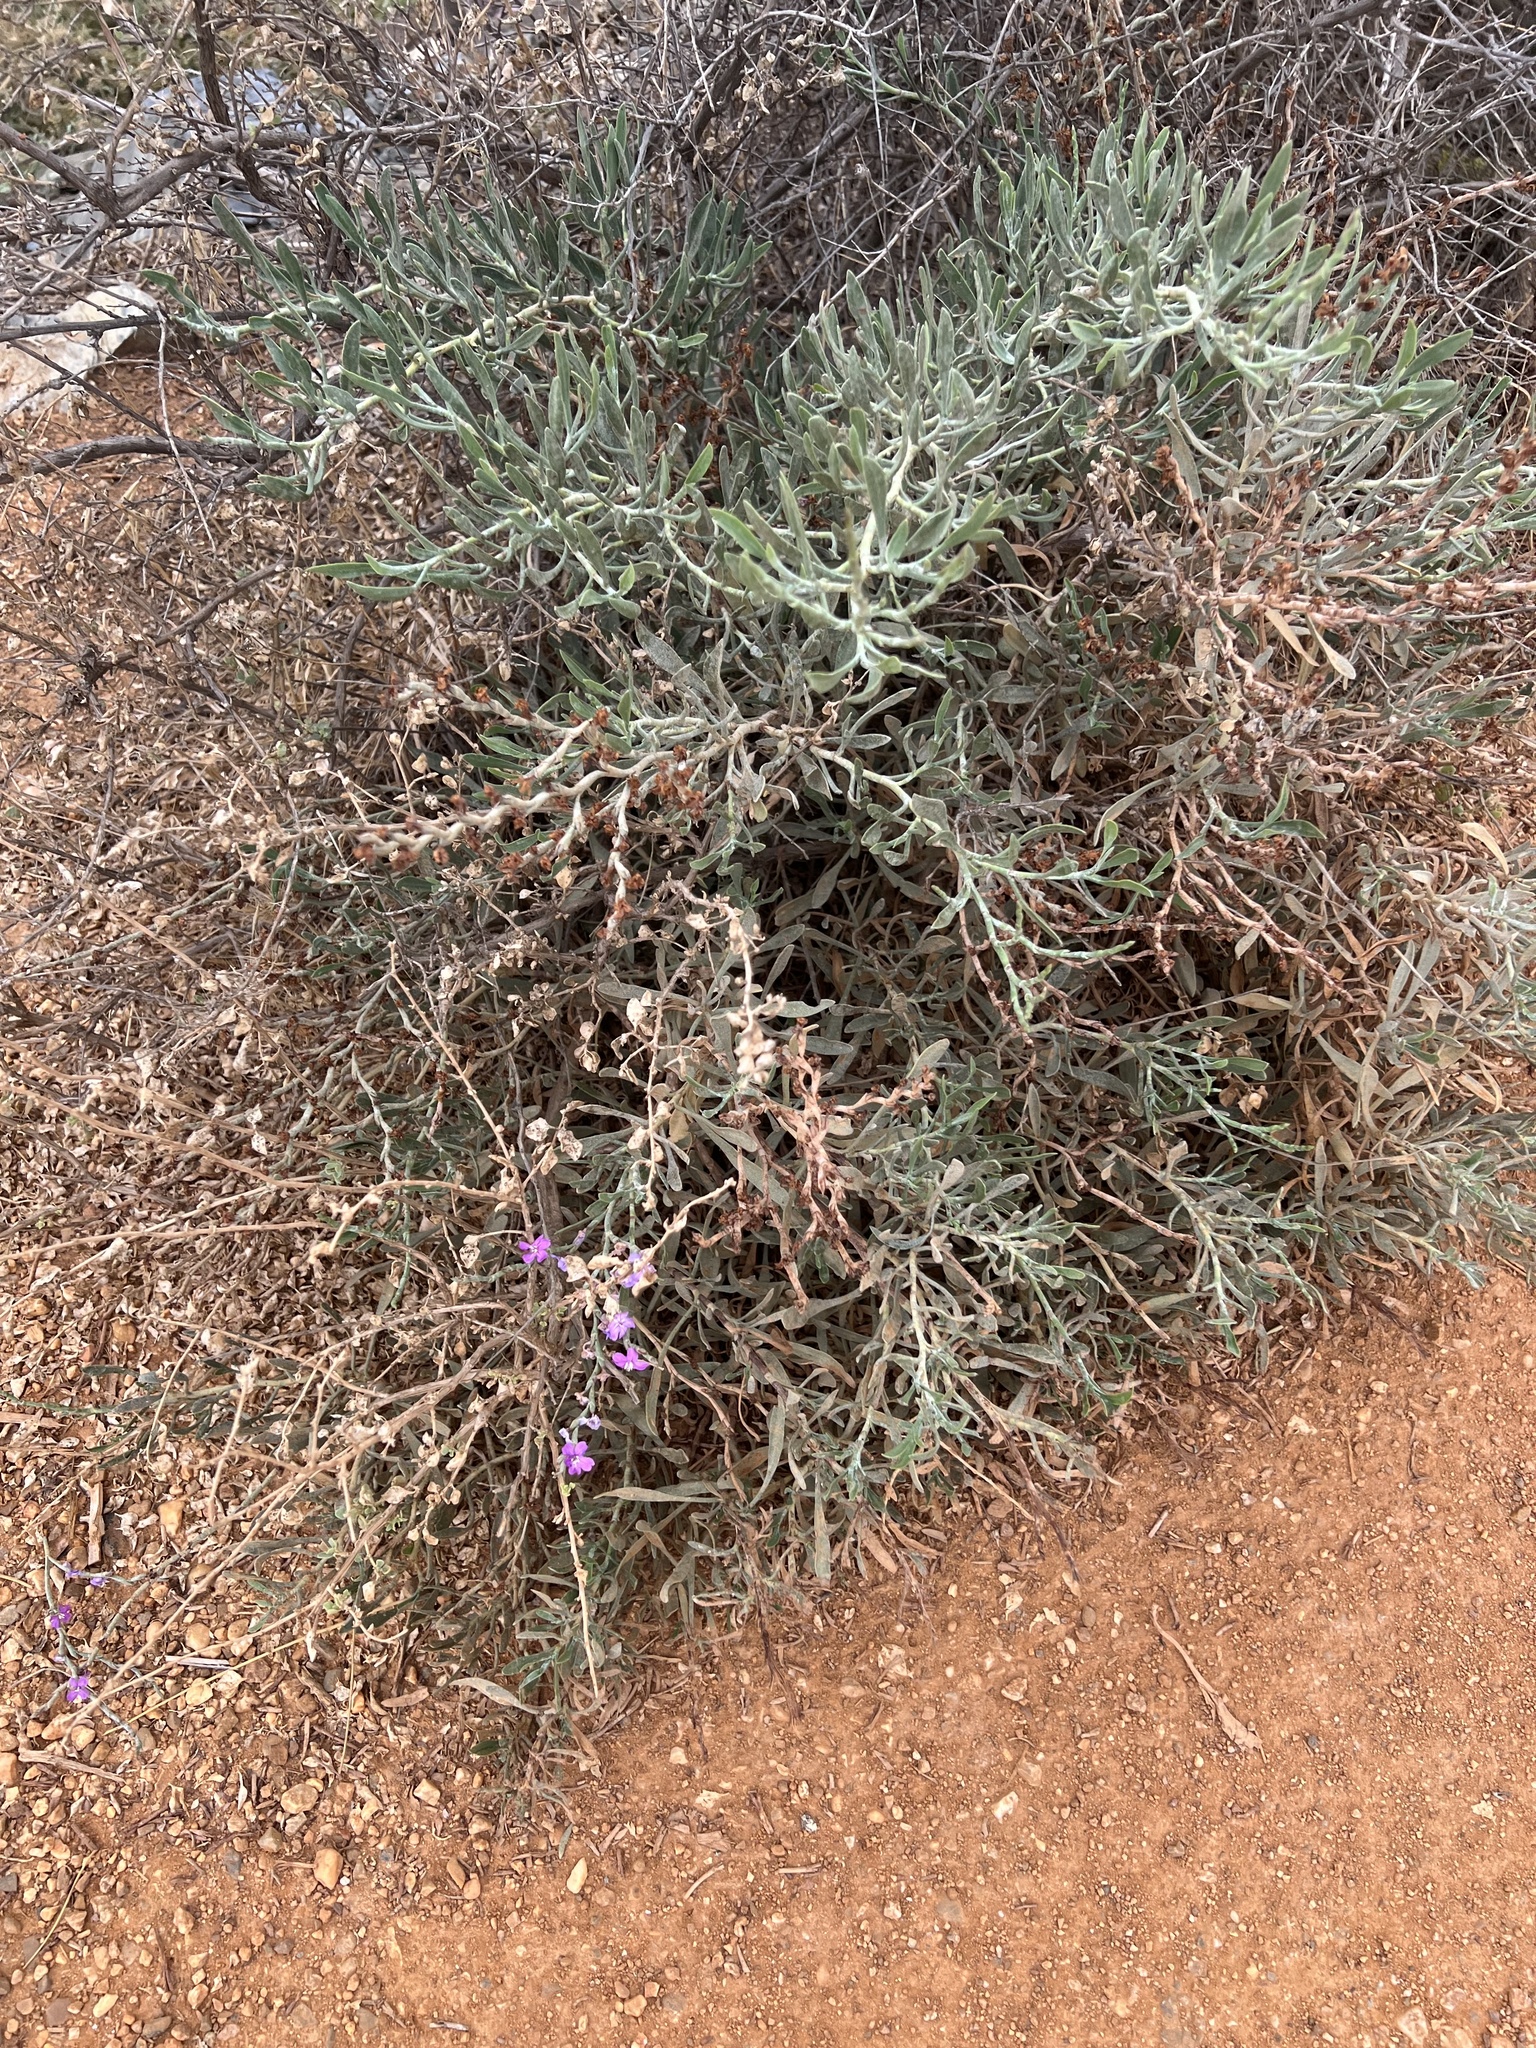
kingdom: Plantae
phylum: Tracheophyta
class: Magnoliopsida
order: Caryophyllales
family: Plumbaginaceae
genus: Limoniastrum
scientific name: Limoniastrum monopetalum
